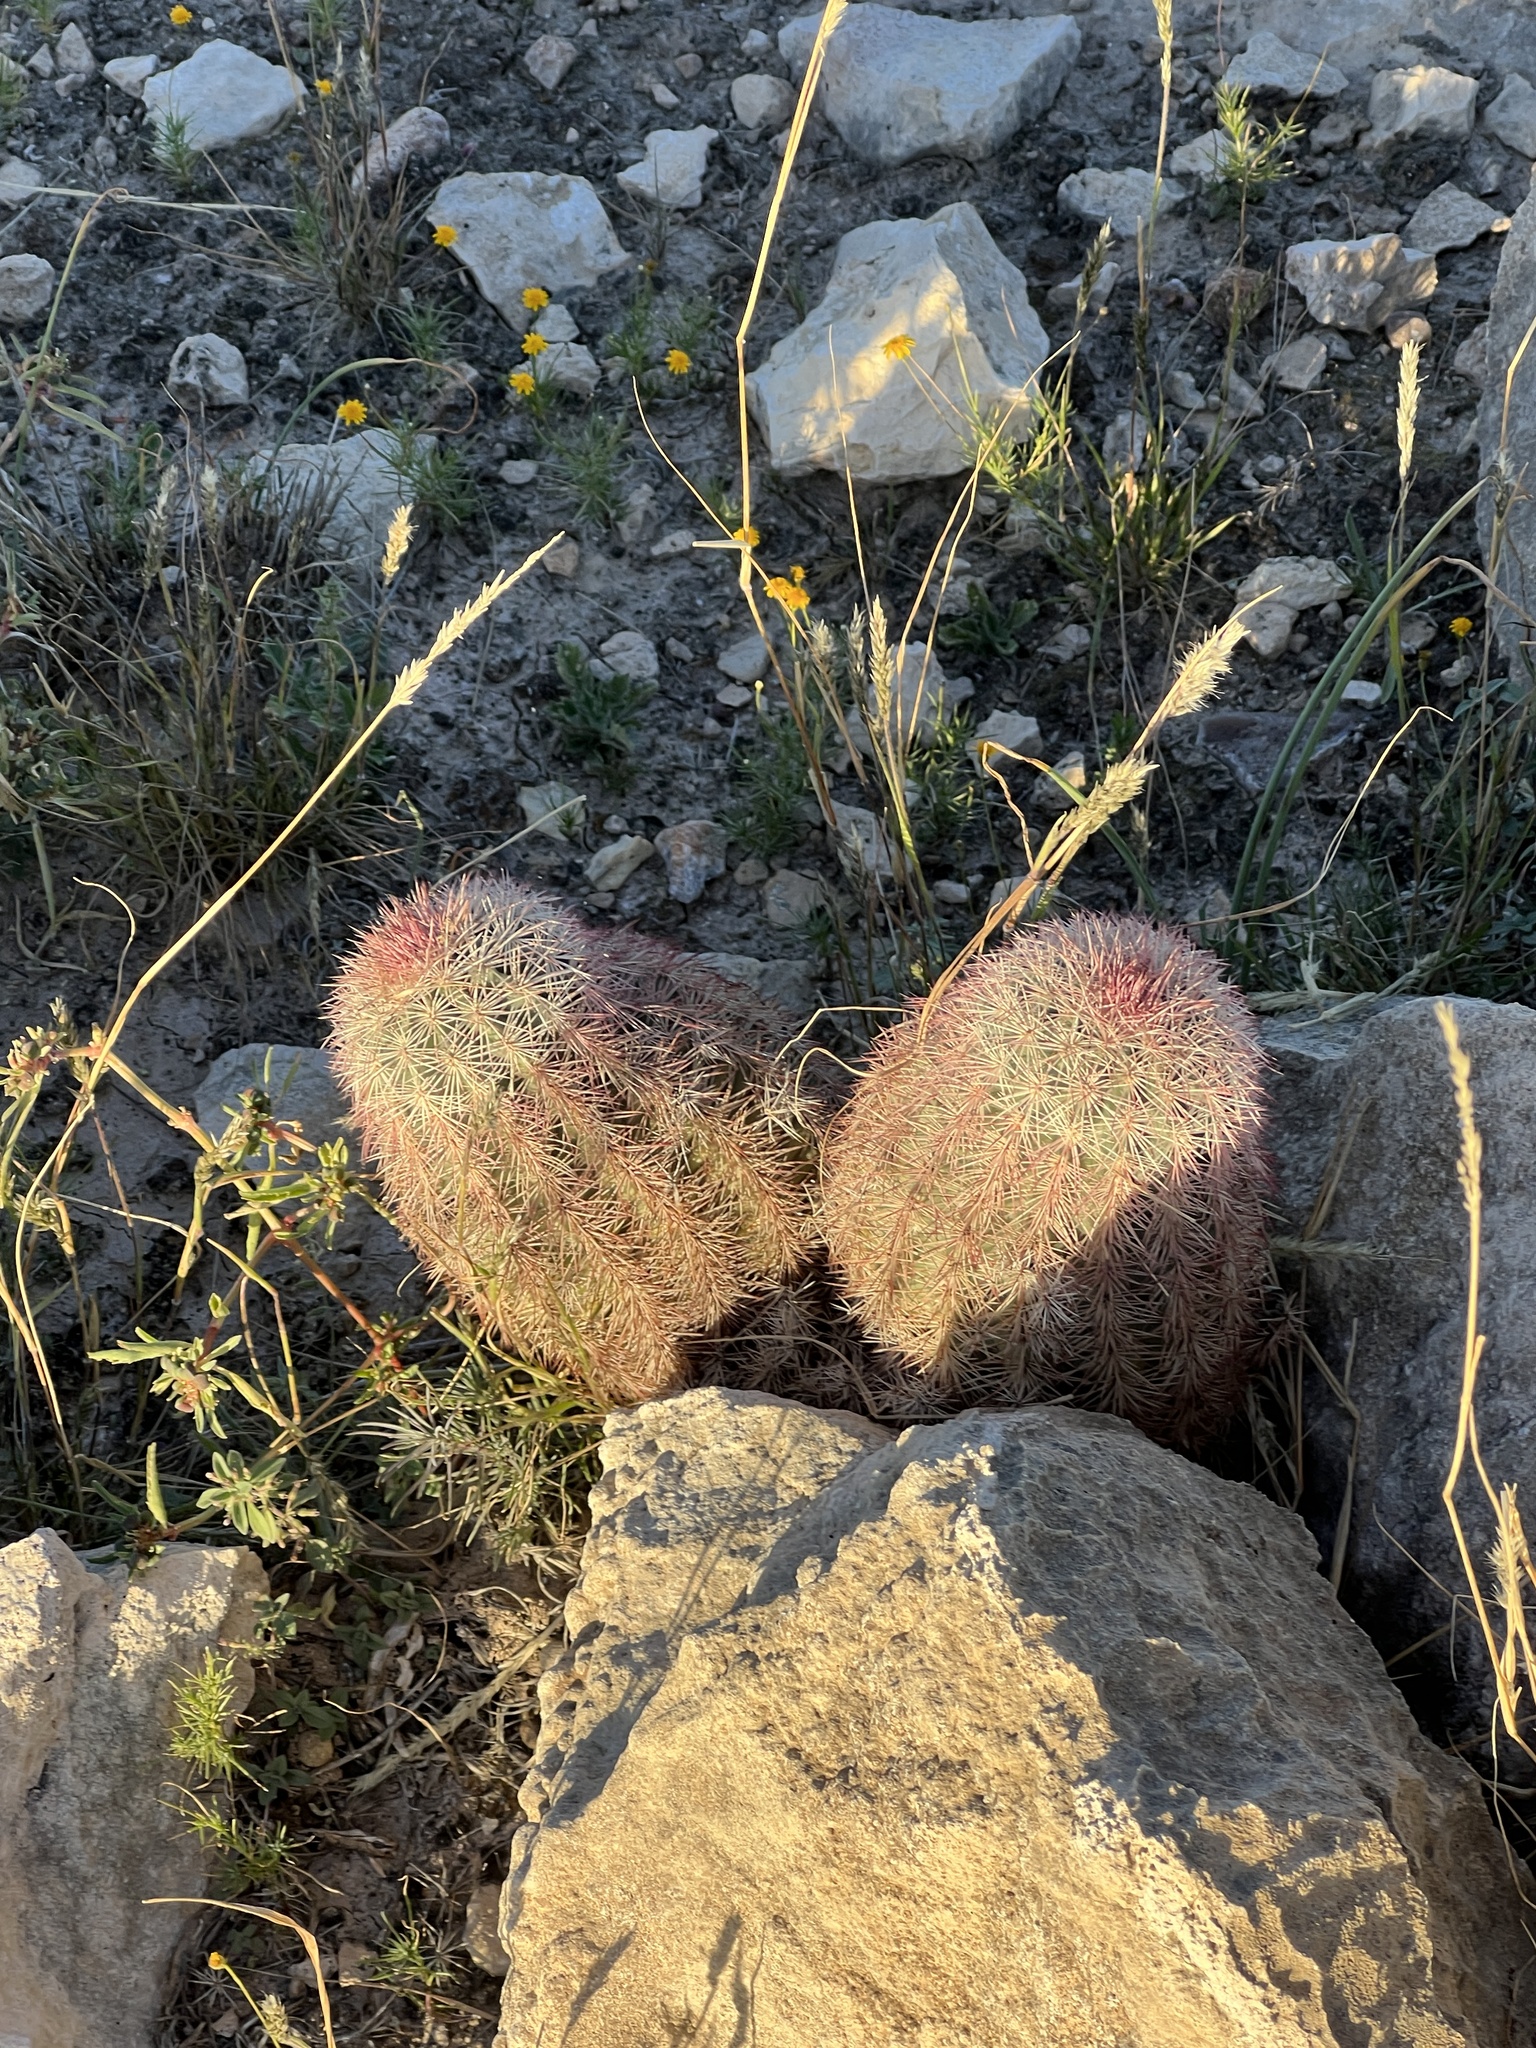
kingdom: Plantae
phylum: Tracheophyta
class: Magnoliopsida
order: Caryophyllales
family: Cactaceae
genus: Echinocereus
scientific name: Echinocereus dasyacanthus
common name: Spiny hedgehog cactus
